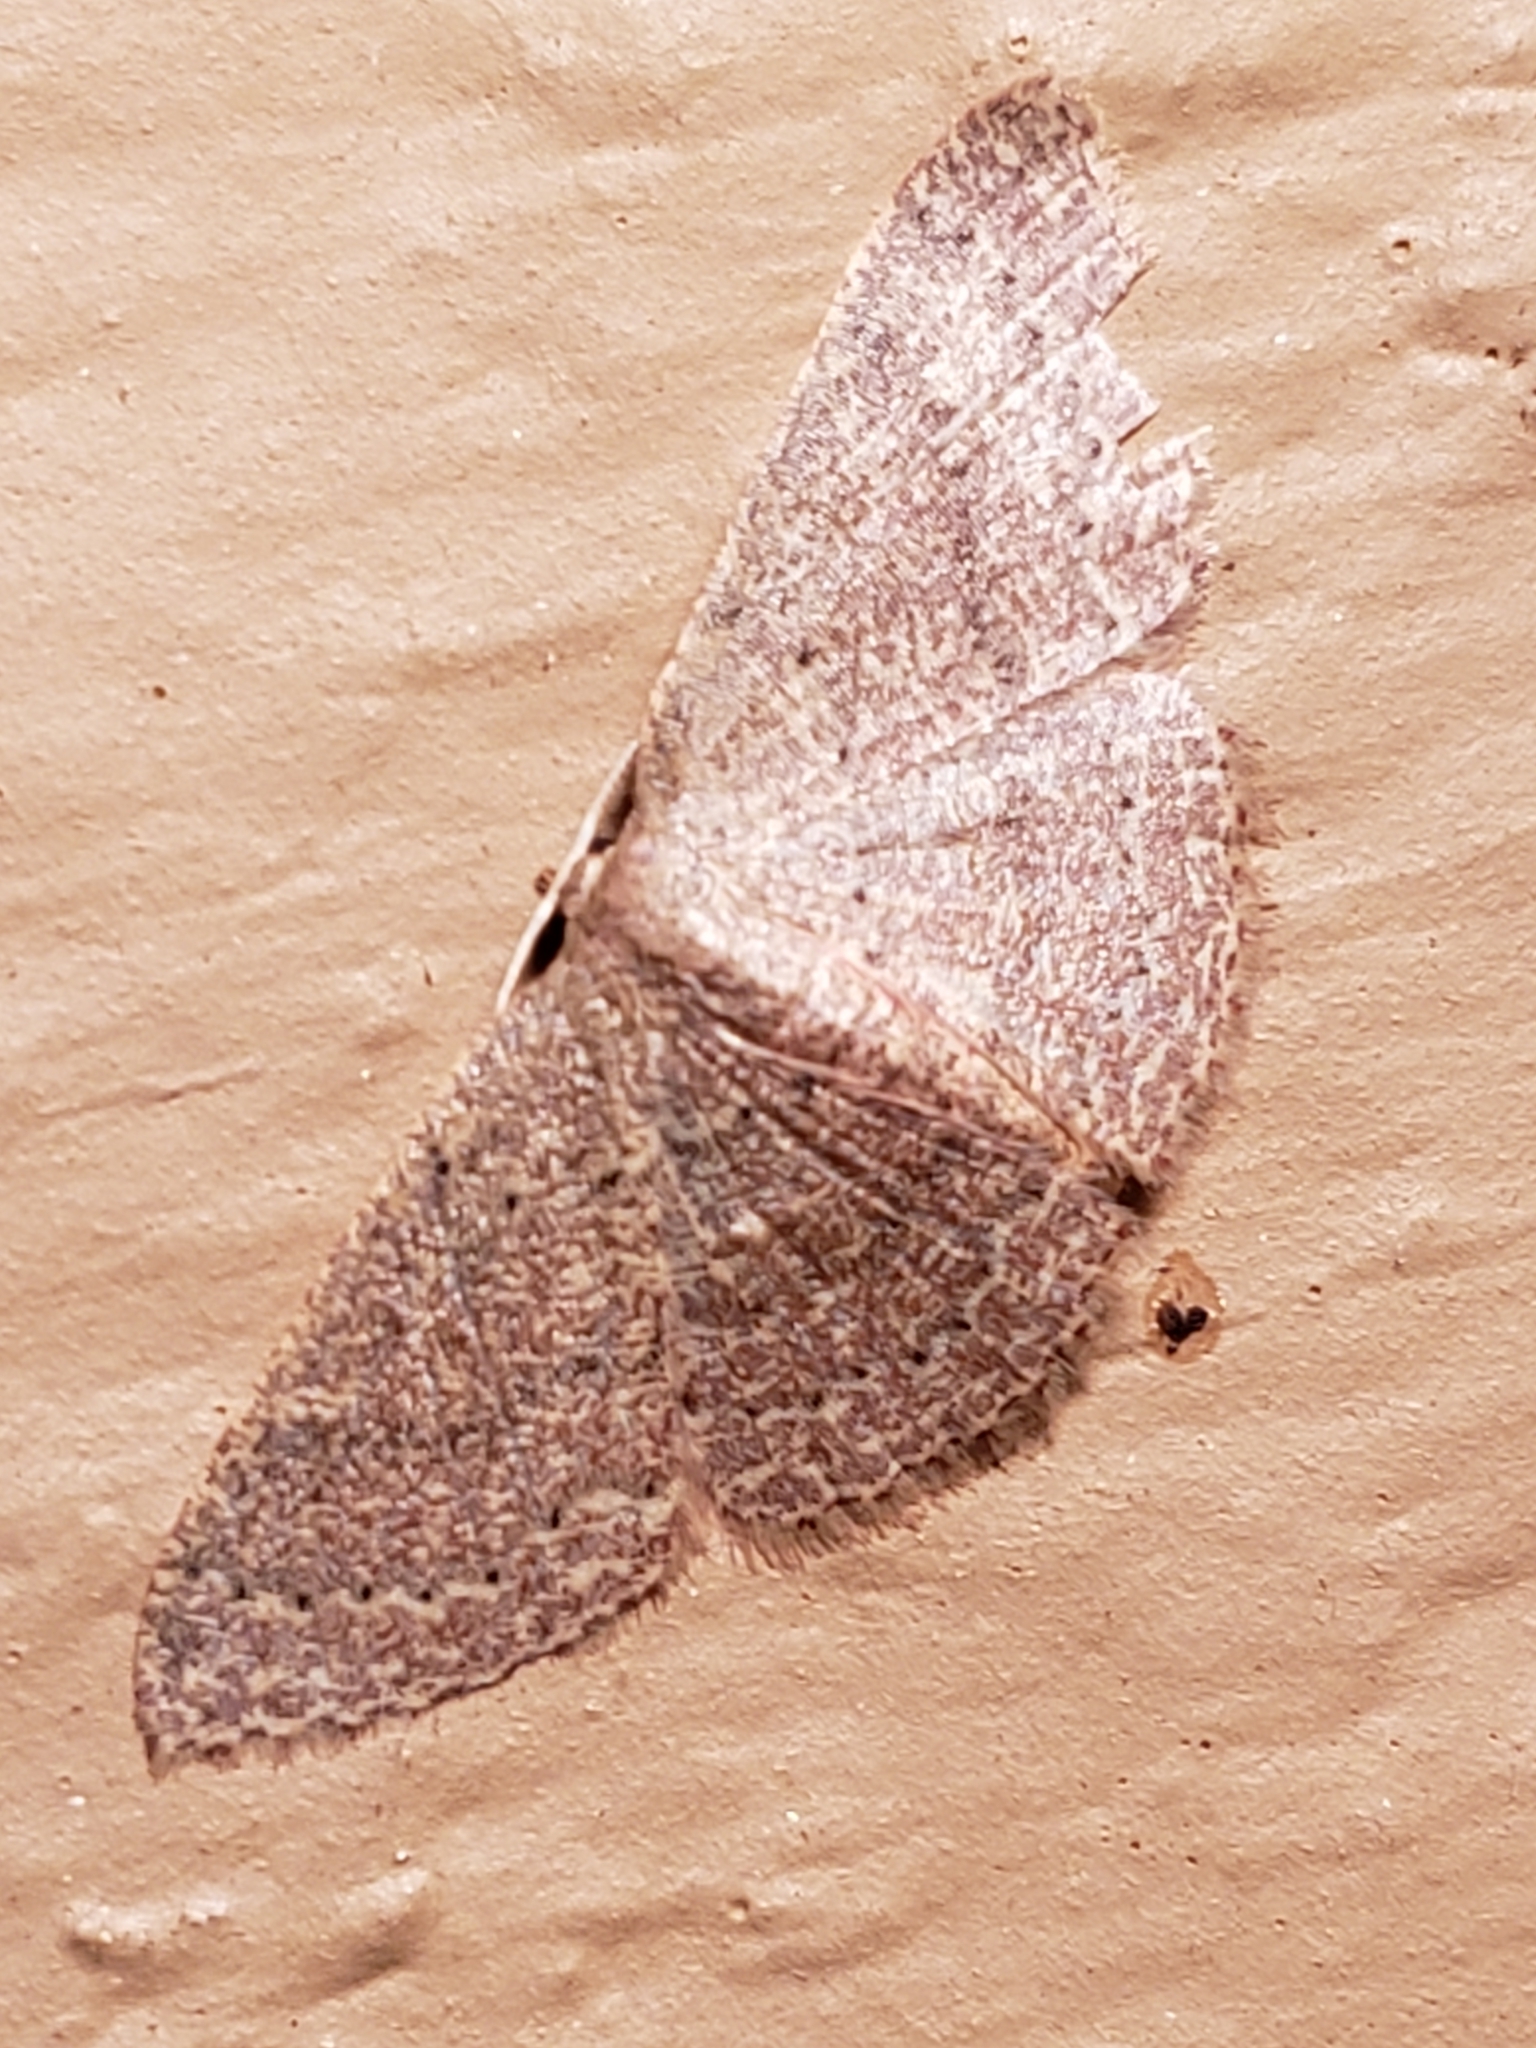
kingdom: Animalia
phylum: Arthropoda
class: Insecta
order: Lepidoptera
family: Geometridae
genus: Pleuroprucha
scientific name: Pleuroprucha insulsaria
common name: Common tan wave
